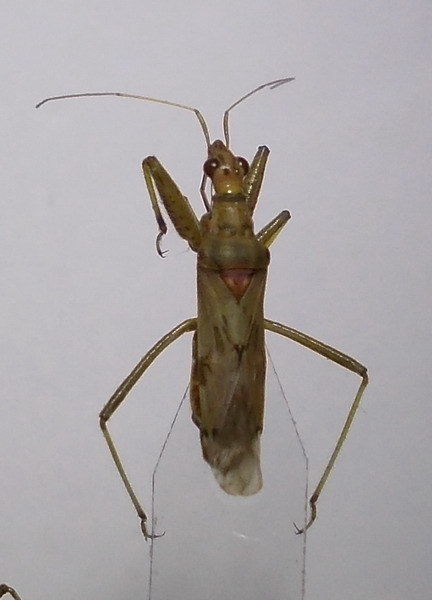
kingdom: Animalia
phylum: Arthropoda
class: Insecta
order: Hemiptera
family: Nabidae
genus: Nabis
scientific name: Nabis pallidus
